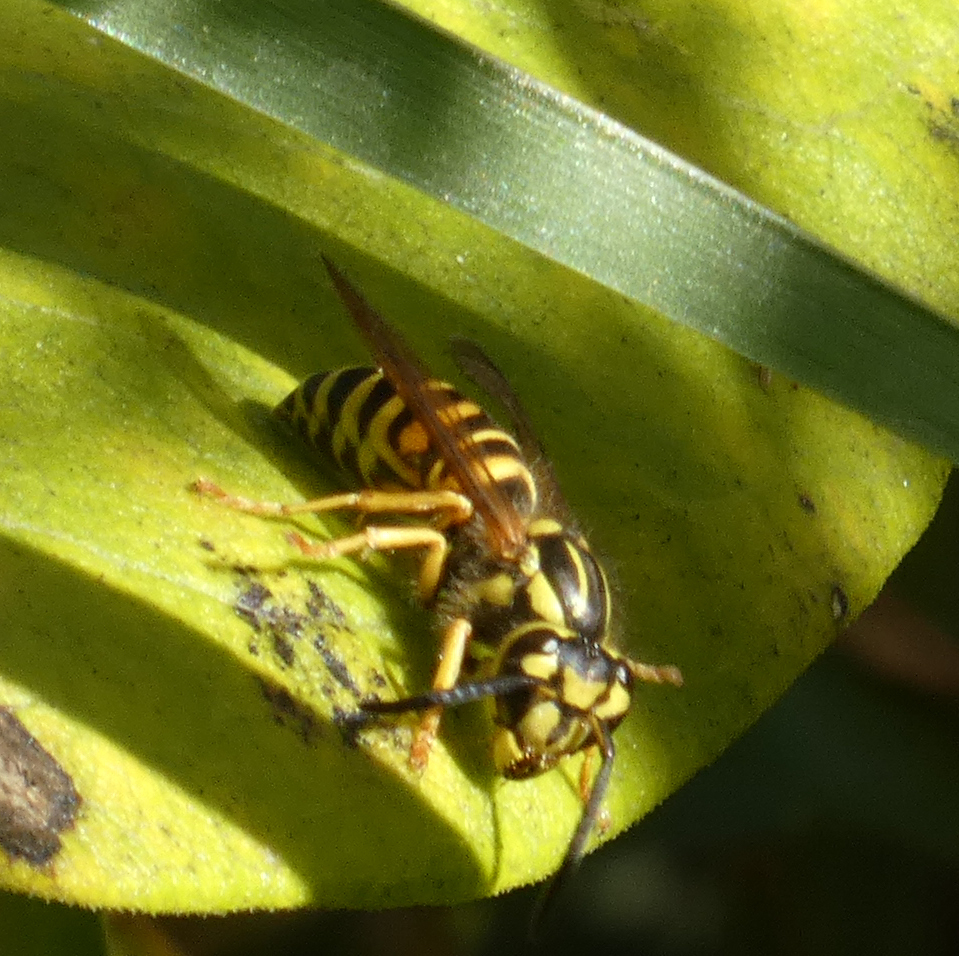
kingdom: Animalia
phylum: Arthropoda
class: Insecta
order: Hymenoptera
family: Vespidae
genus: Vespula
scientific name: Vespula squamosa
